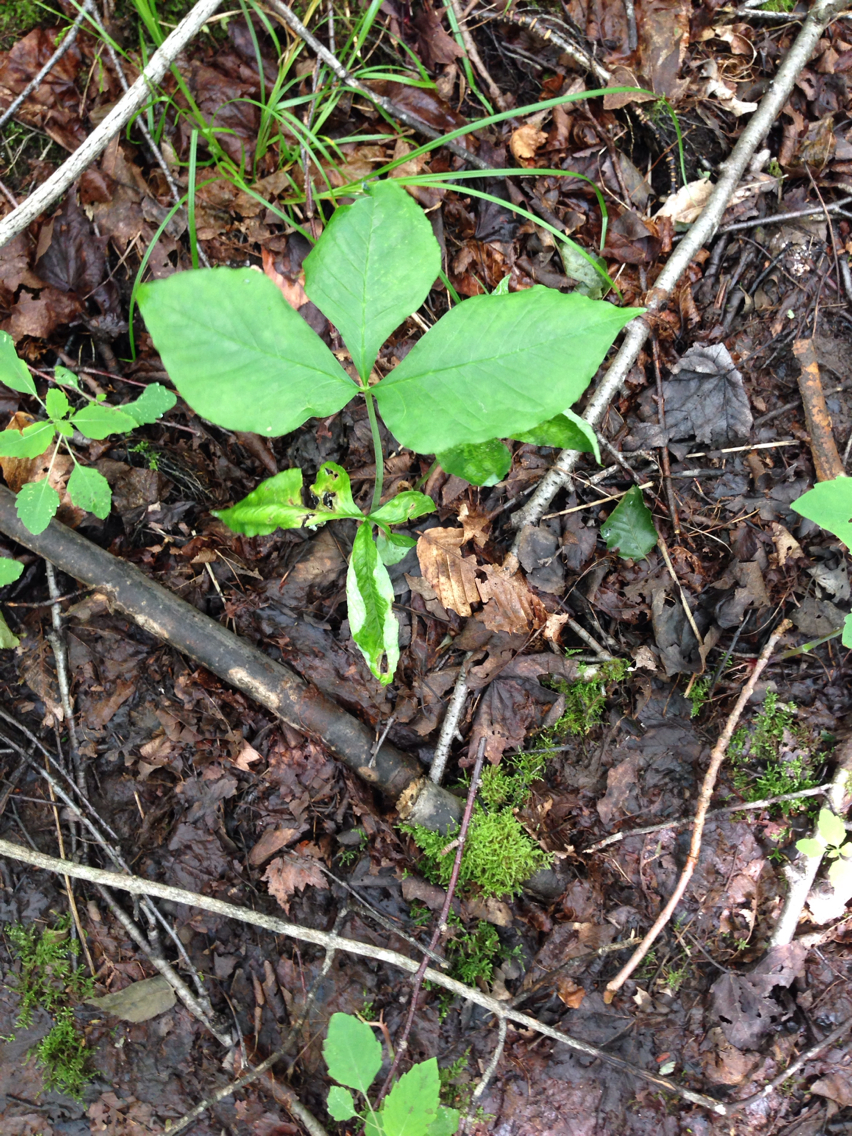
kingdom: Plantae
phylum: Tracheophyta
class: Liliopsida
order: Alismatales
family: Araceae
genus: Arisaema
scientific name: Arisaema triphyllum
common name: Jack-in-the-pulpit
